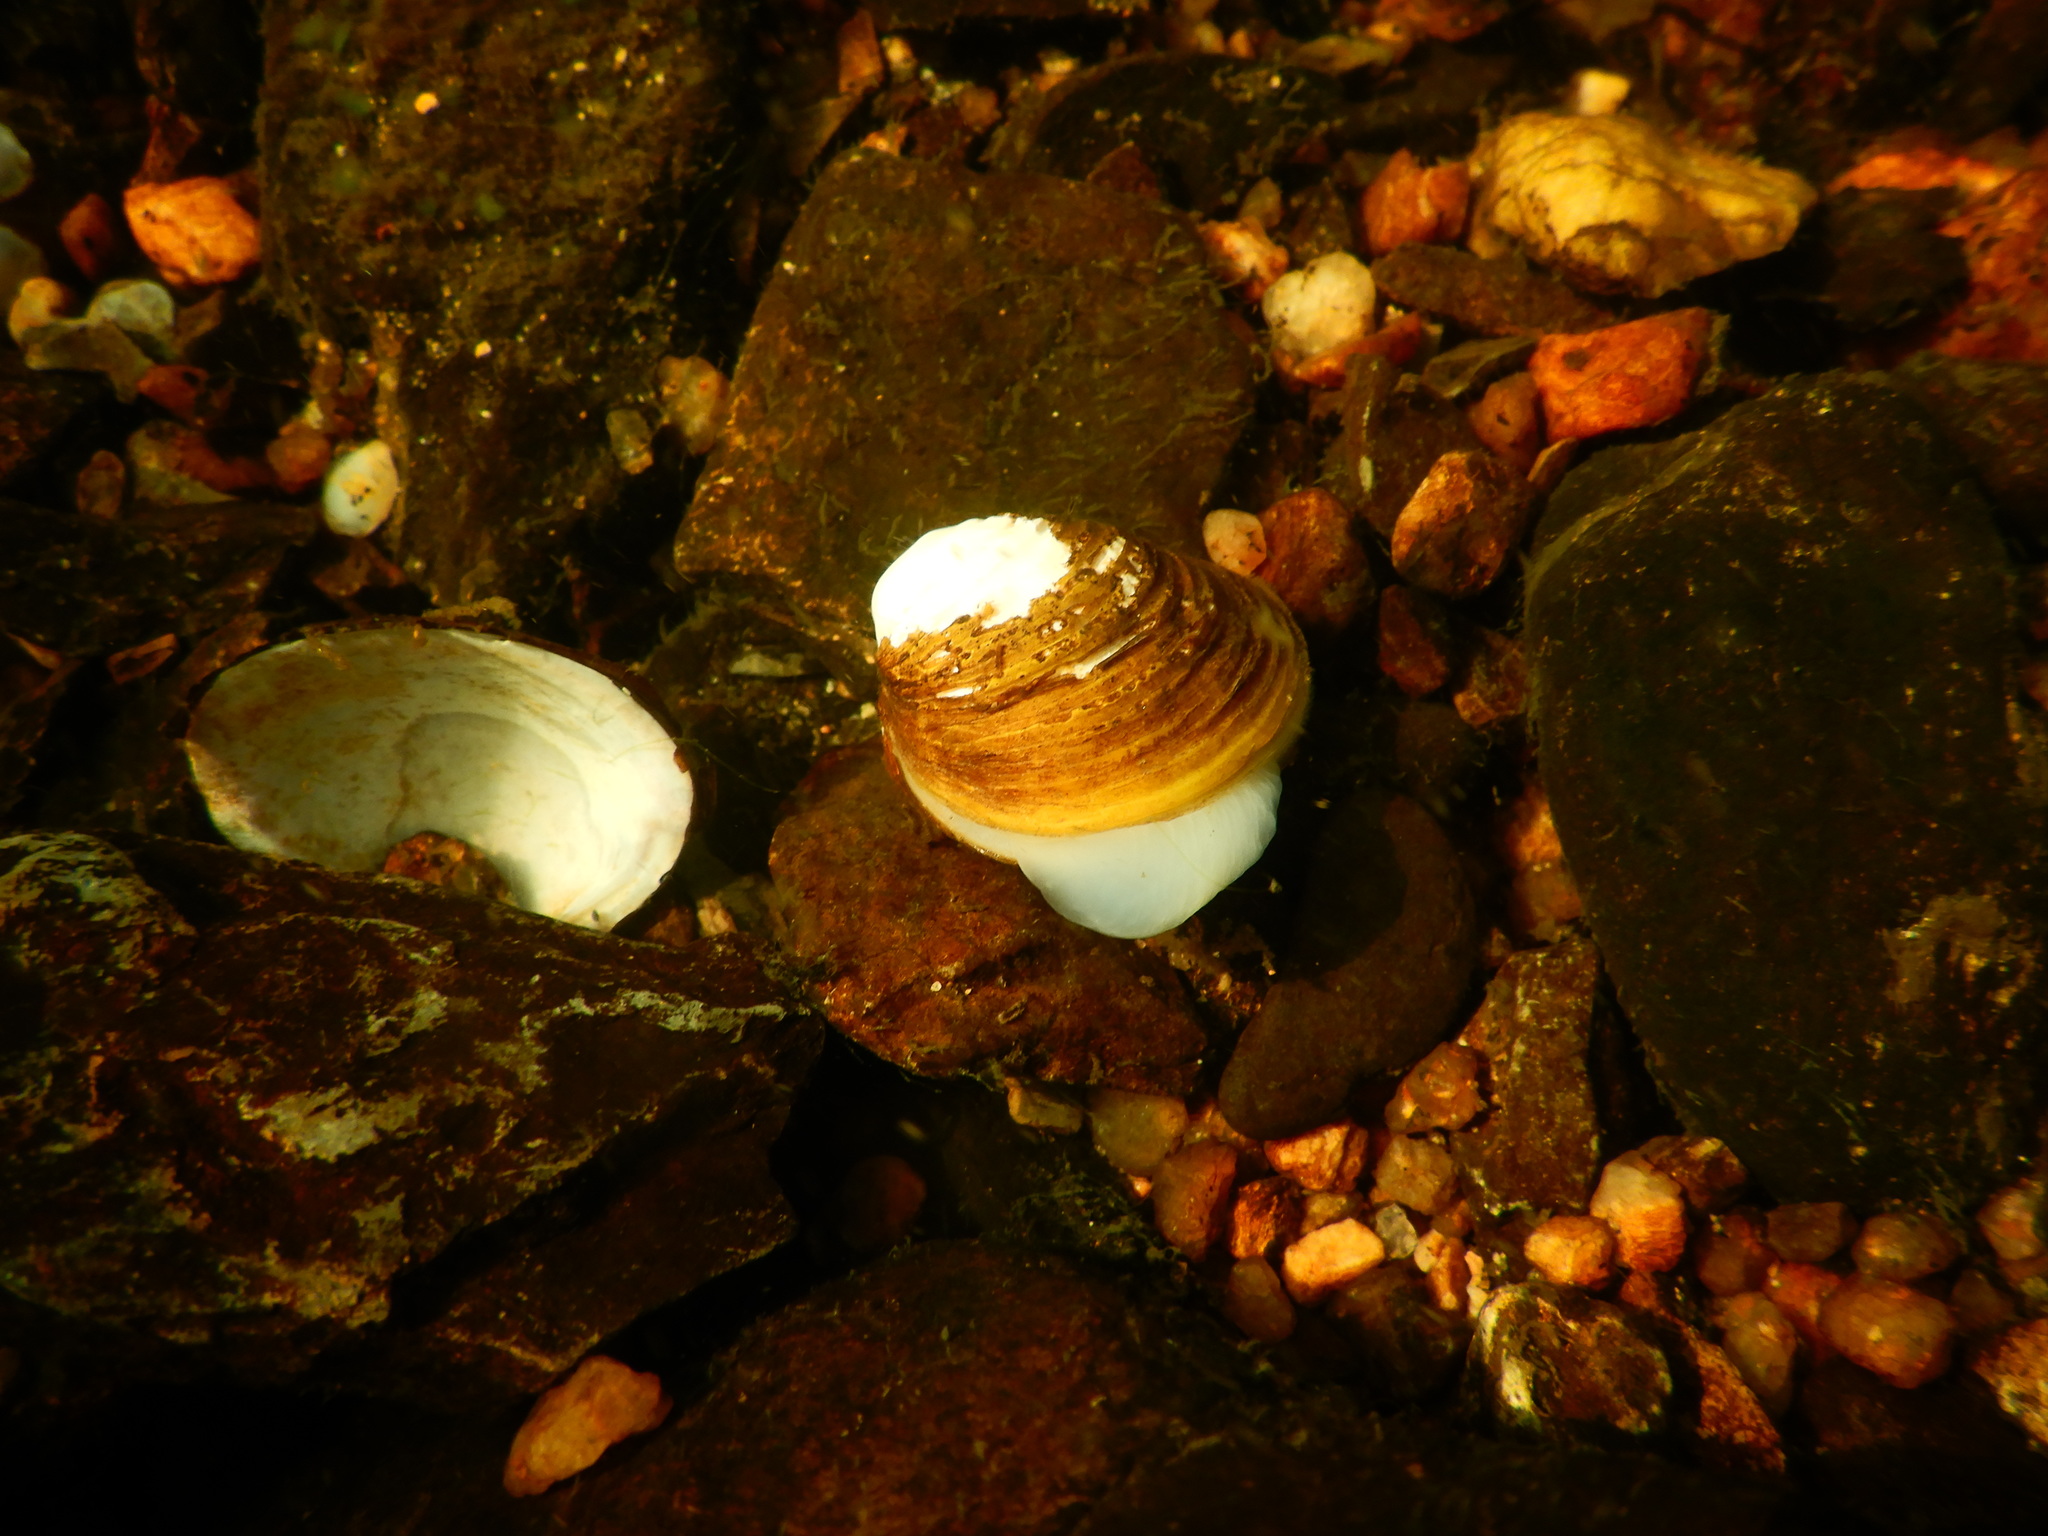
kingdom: Animalia
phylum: Mollusca
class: Bivalvia
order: Venerida
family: Cyrenidae
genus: Corbicula
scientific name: Corbicula fluminea
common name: Asian clam
